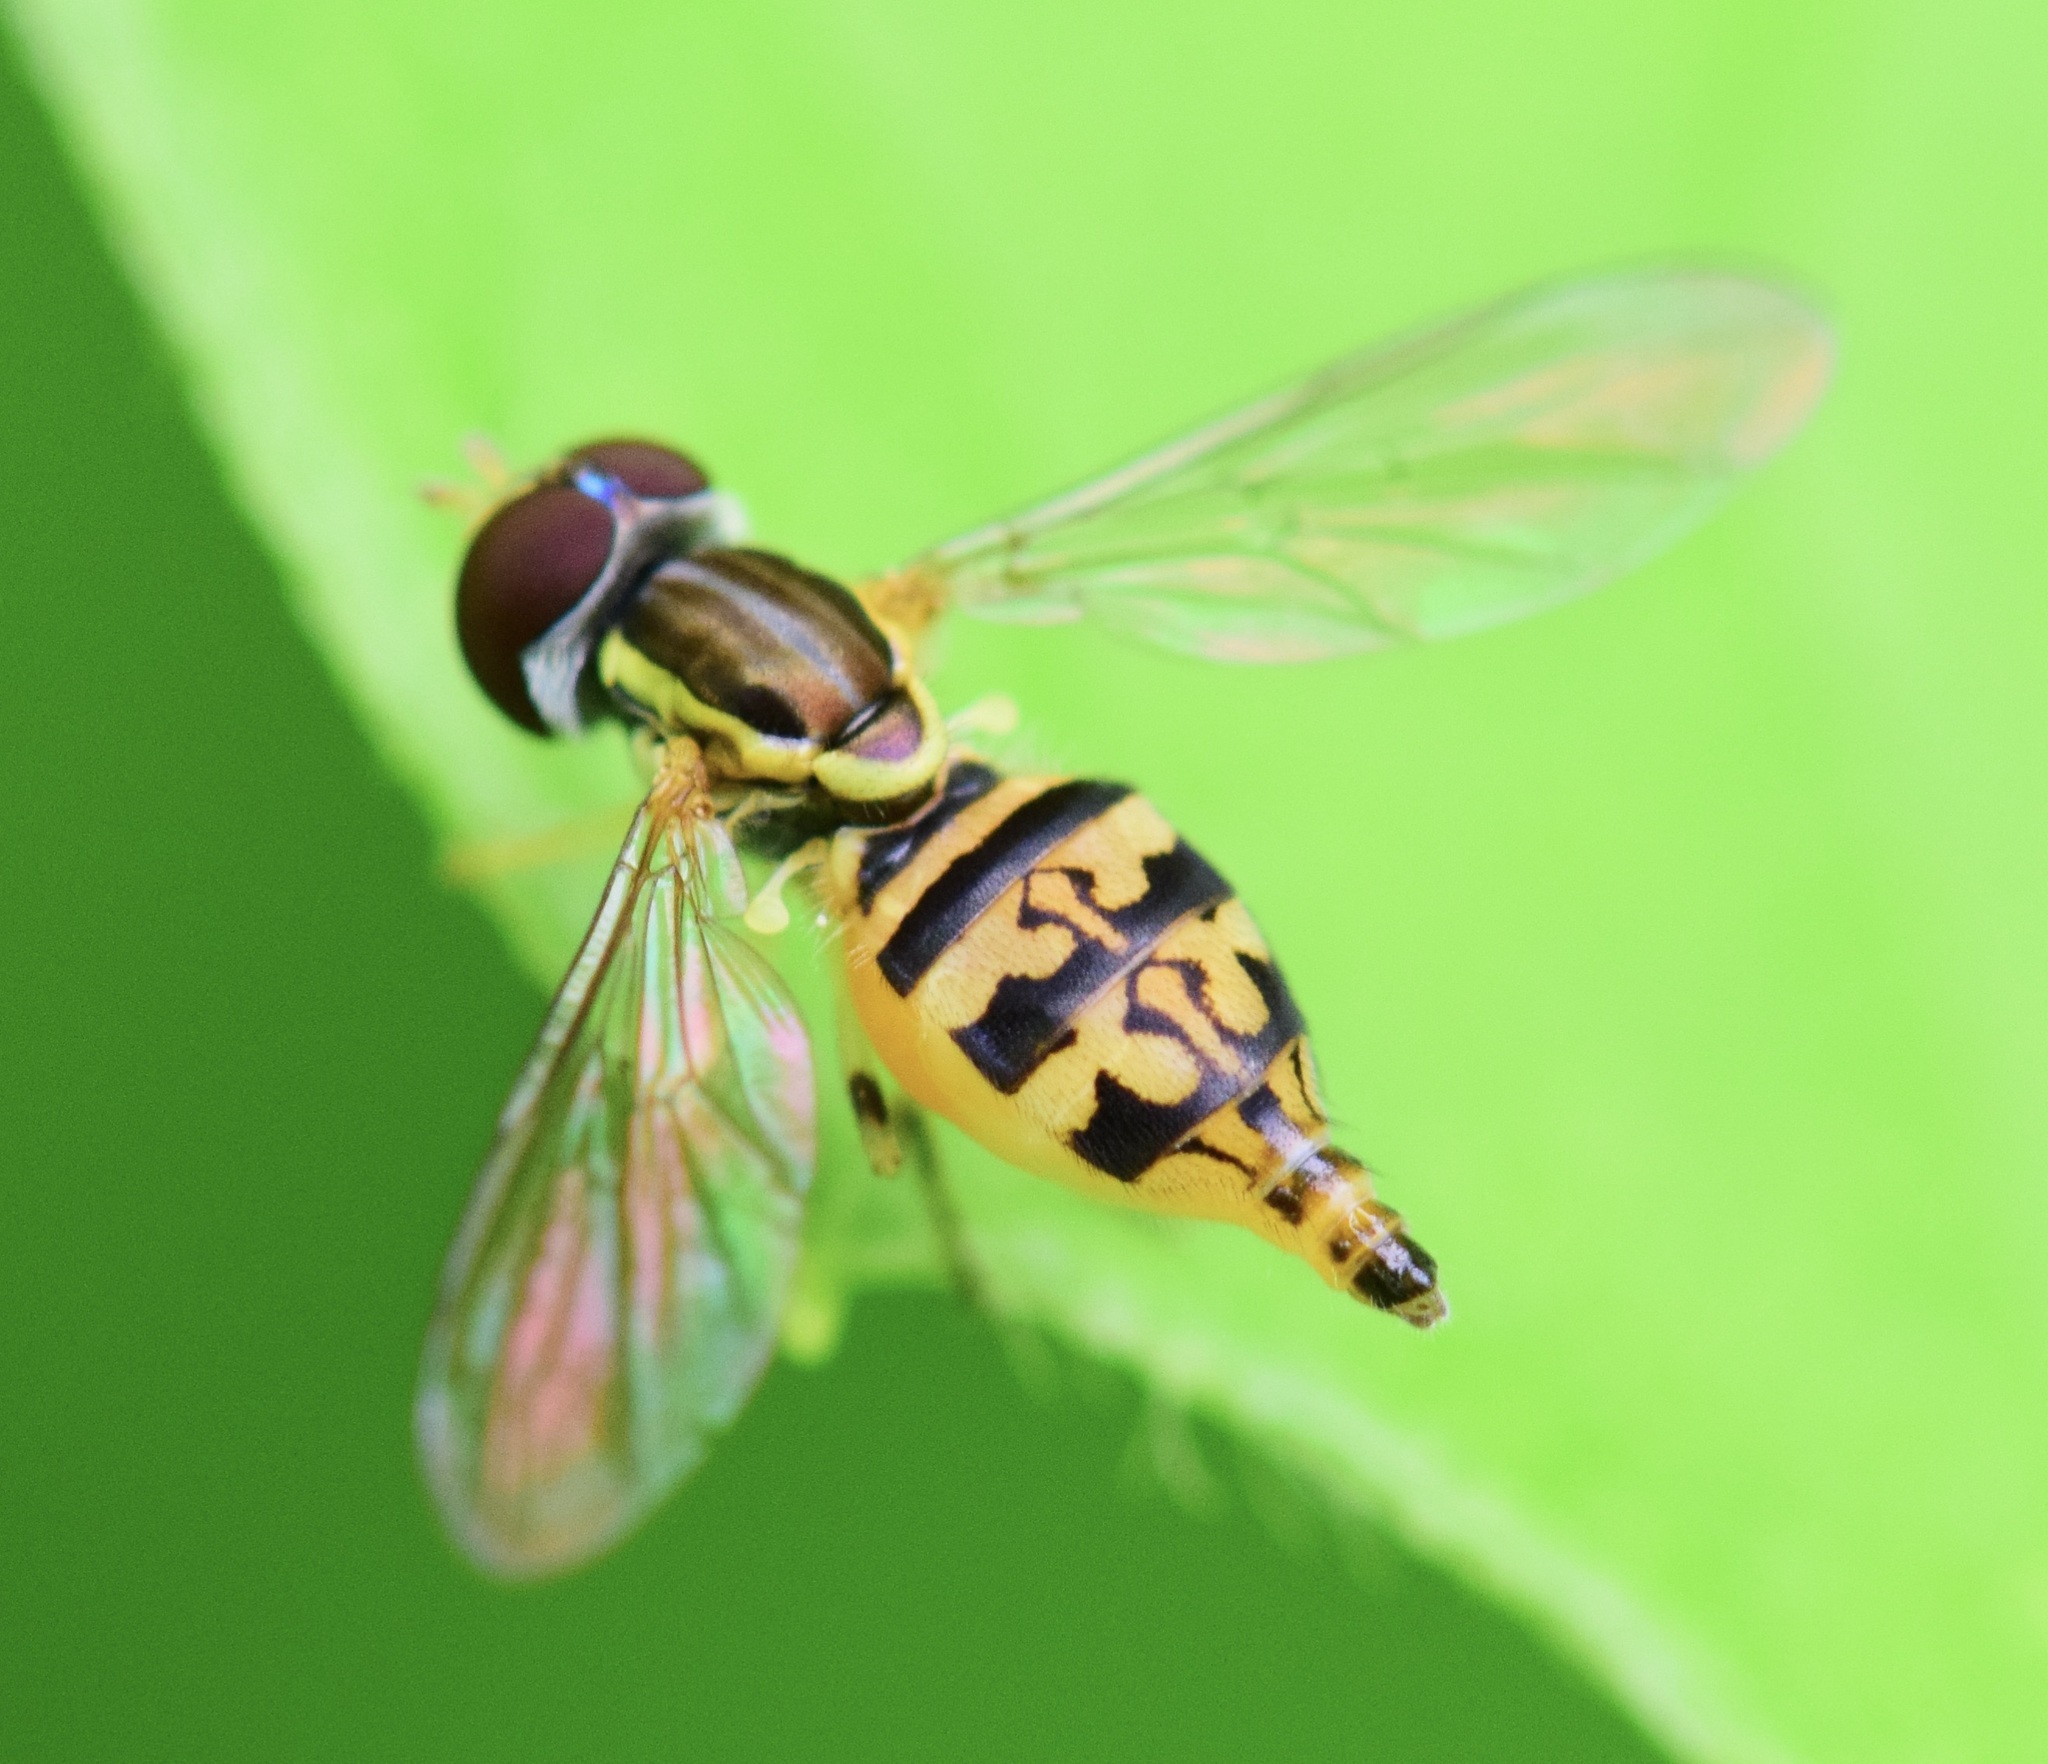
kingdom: Animalia
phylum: Arthropoda
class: Insecta
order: Diptera
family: Syrphidae
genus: Toxomerus
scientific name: Toxomerus geminatus
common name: Eastern calligrapher
